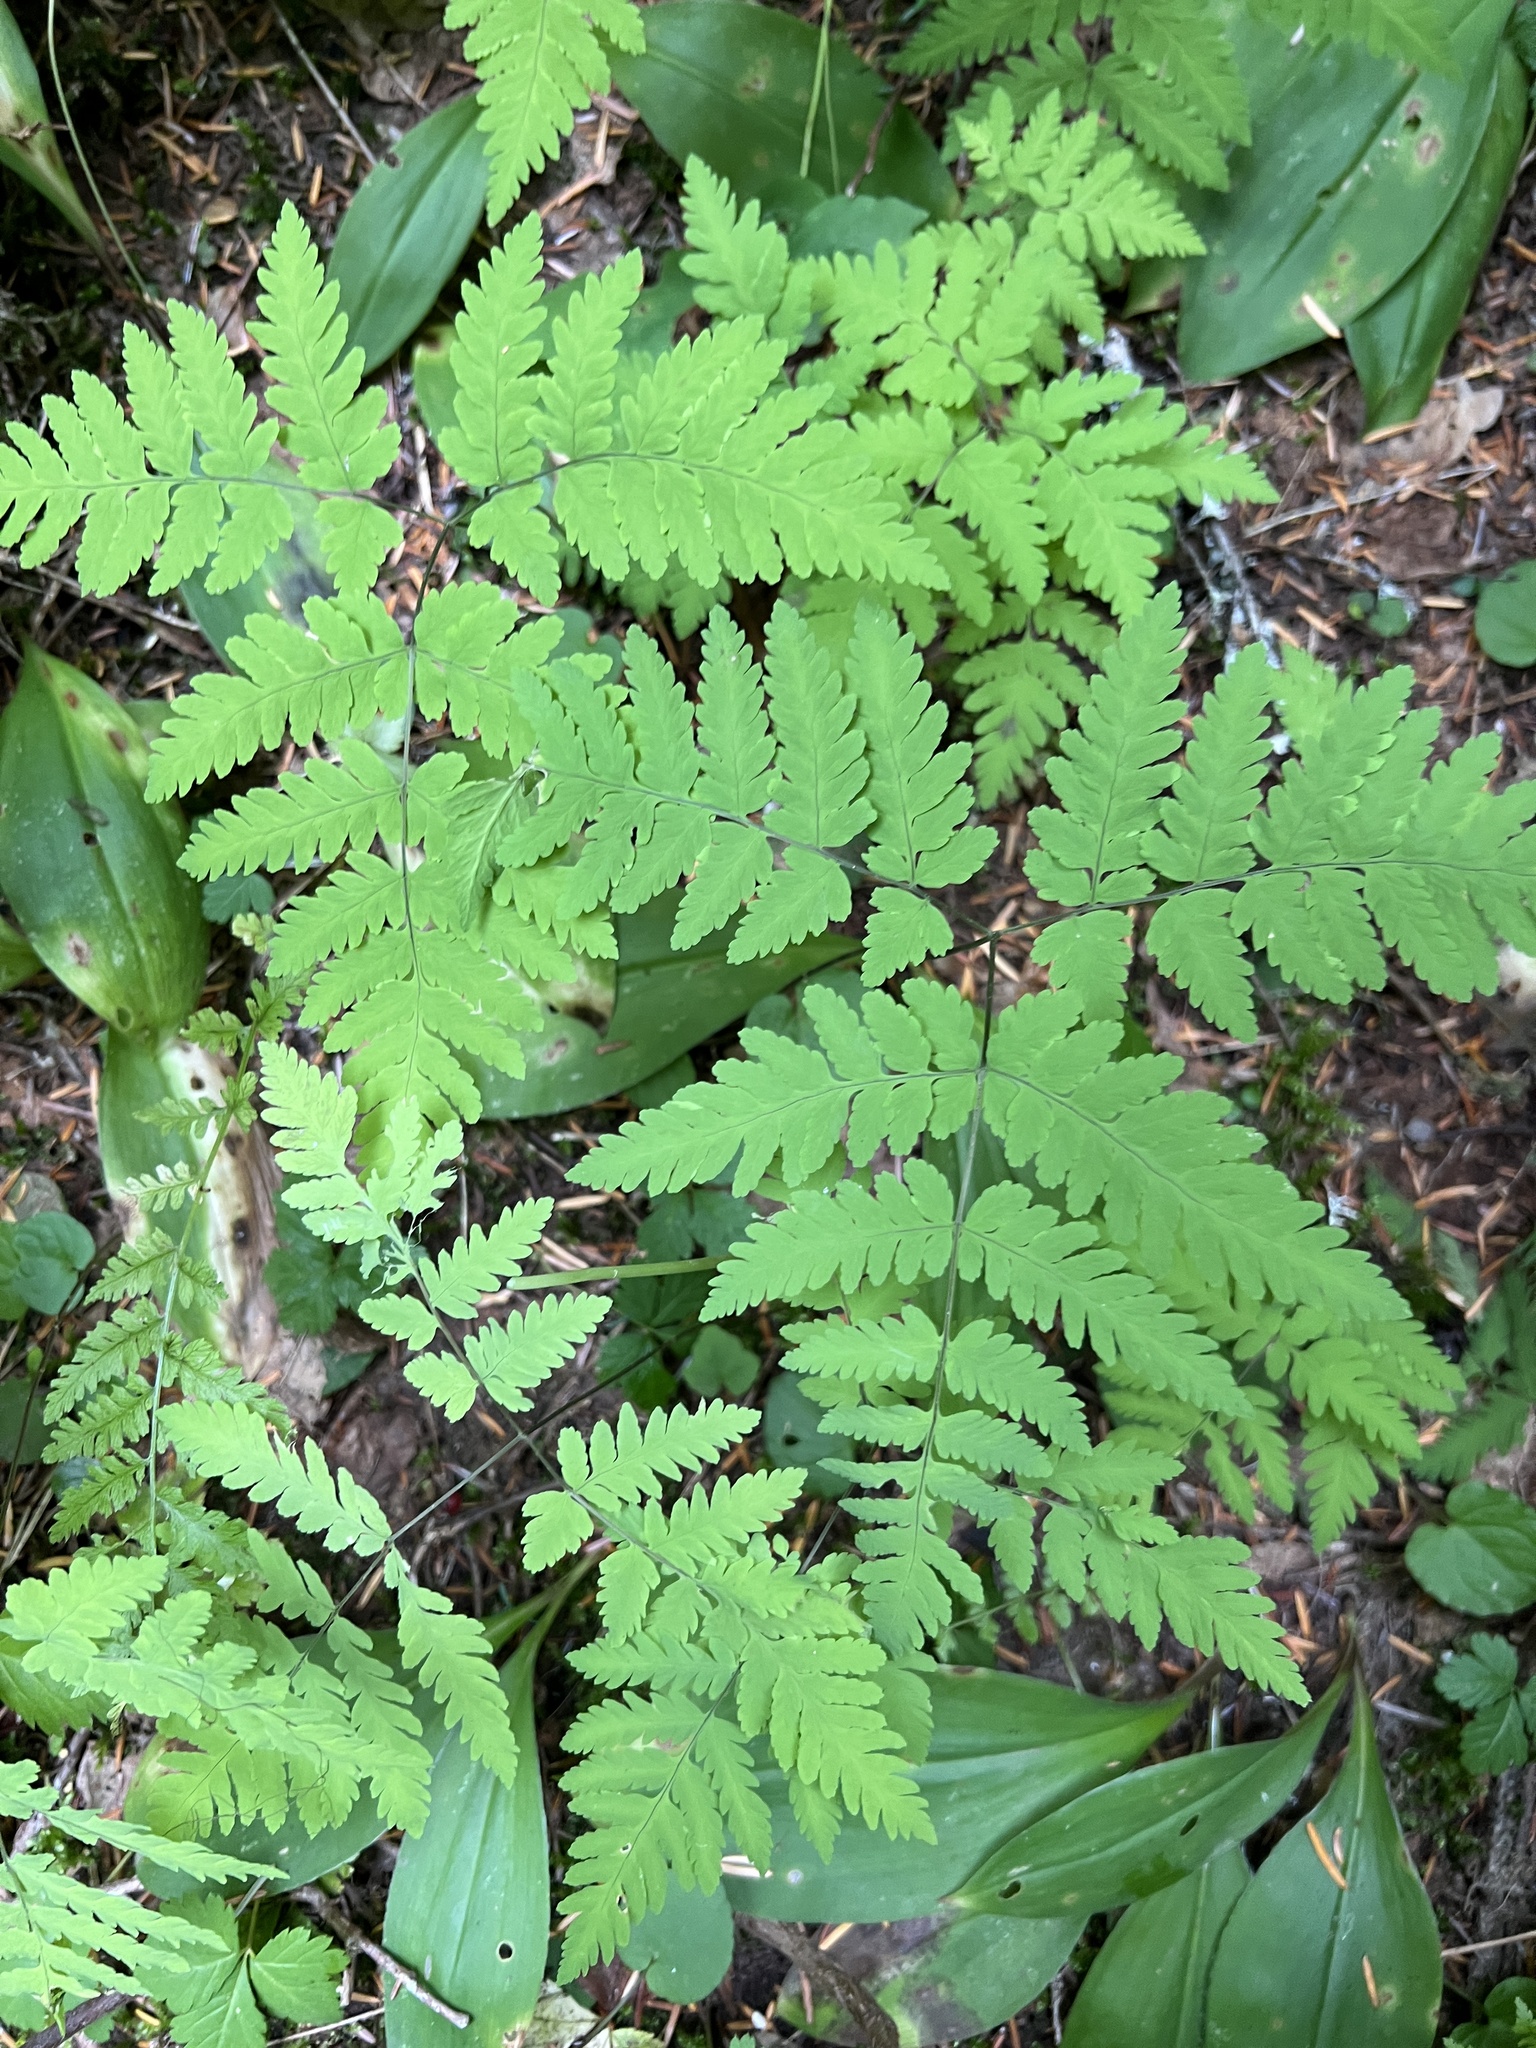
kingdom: Plantae
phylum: Tracheophyta
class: Polypodiopsida
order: Polypodiales
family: Cystopteridaceae
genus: Gymnocarpium
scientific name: Gymnocarpium disjunctum
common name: Western oak fern
